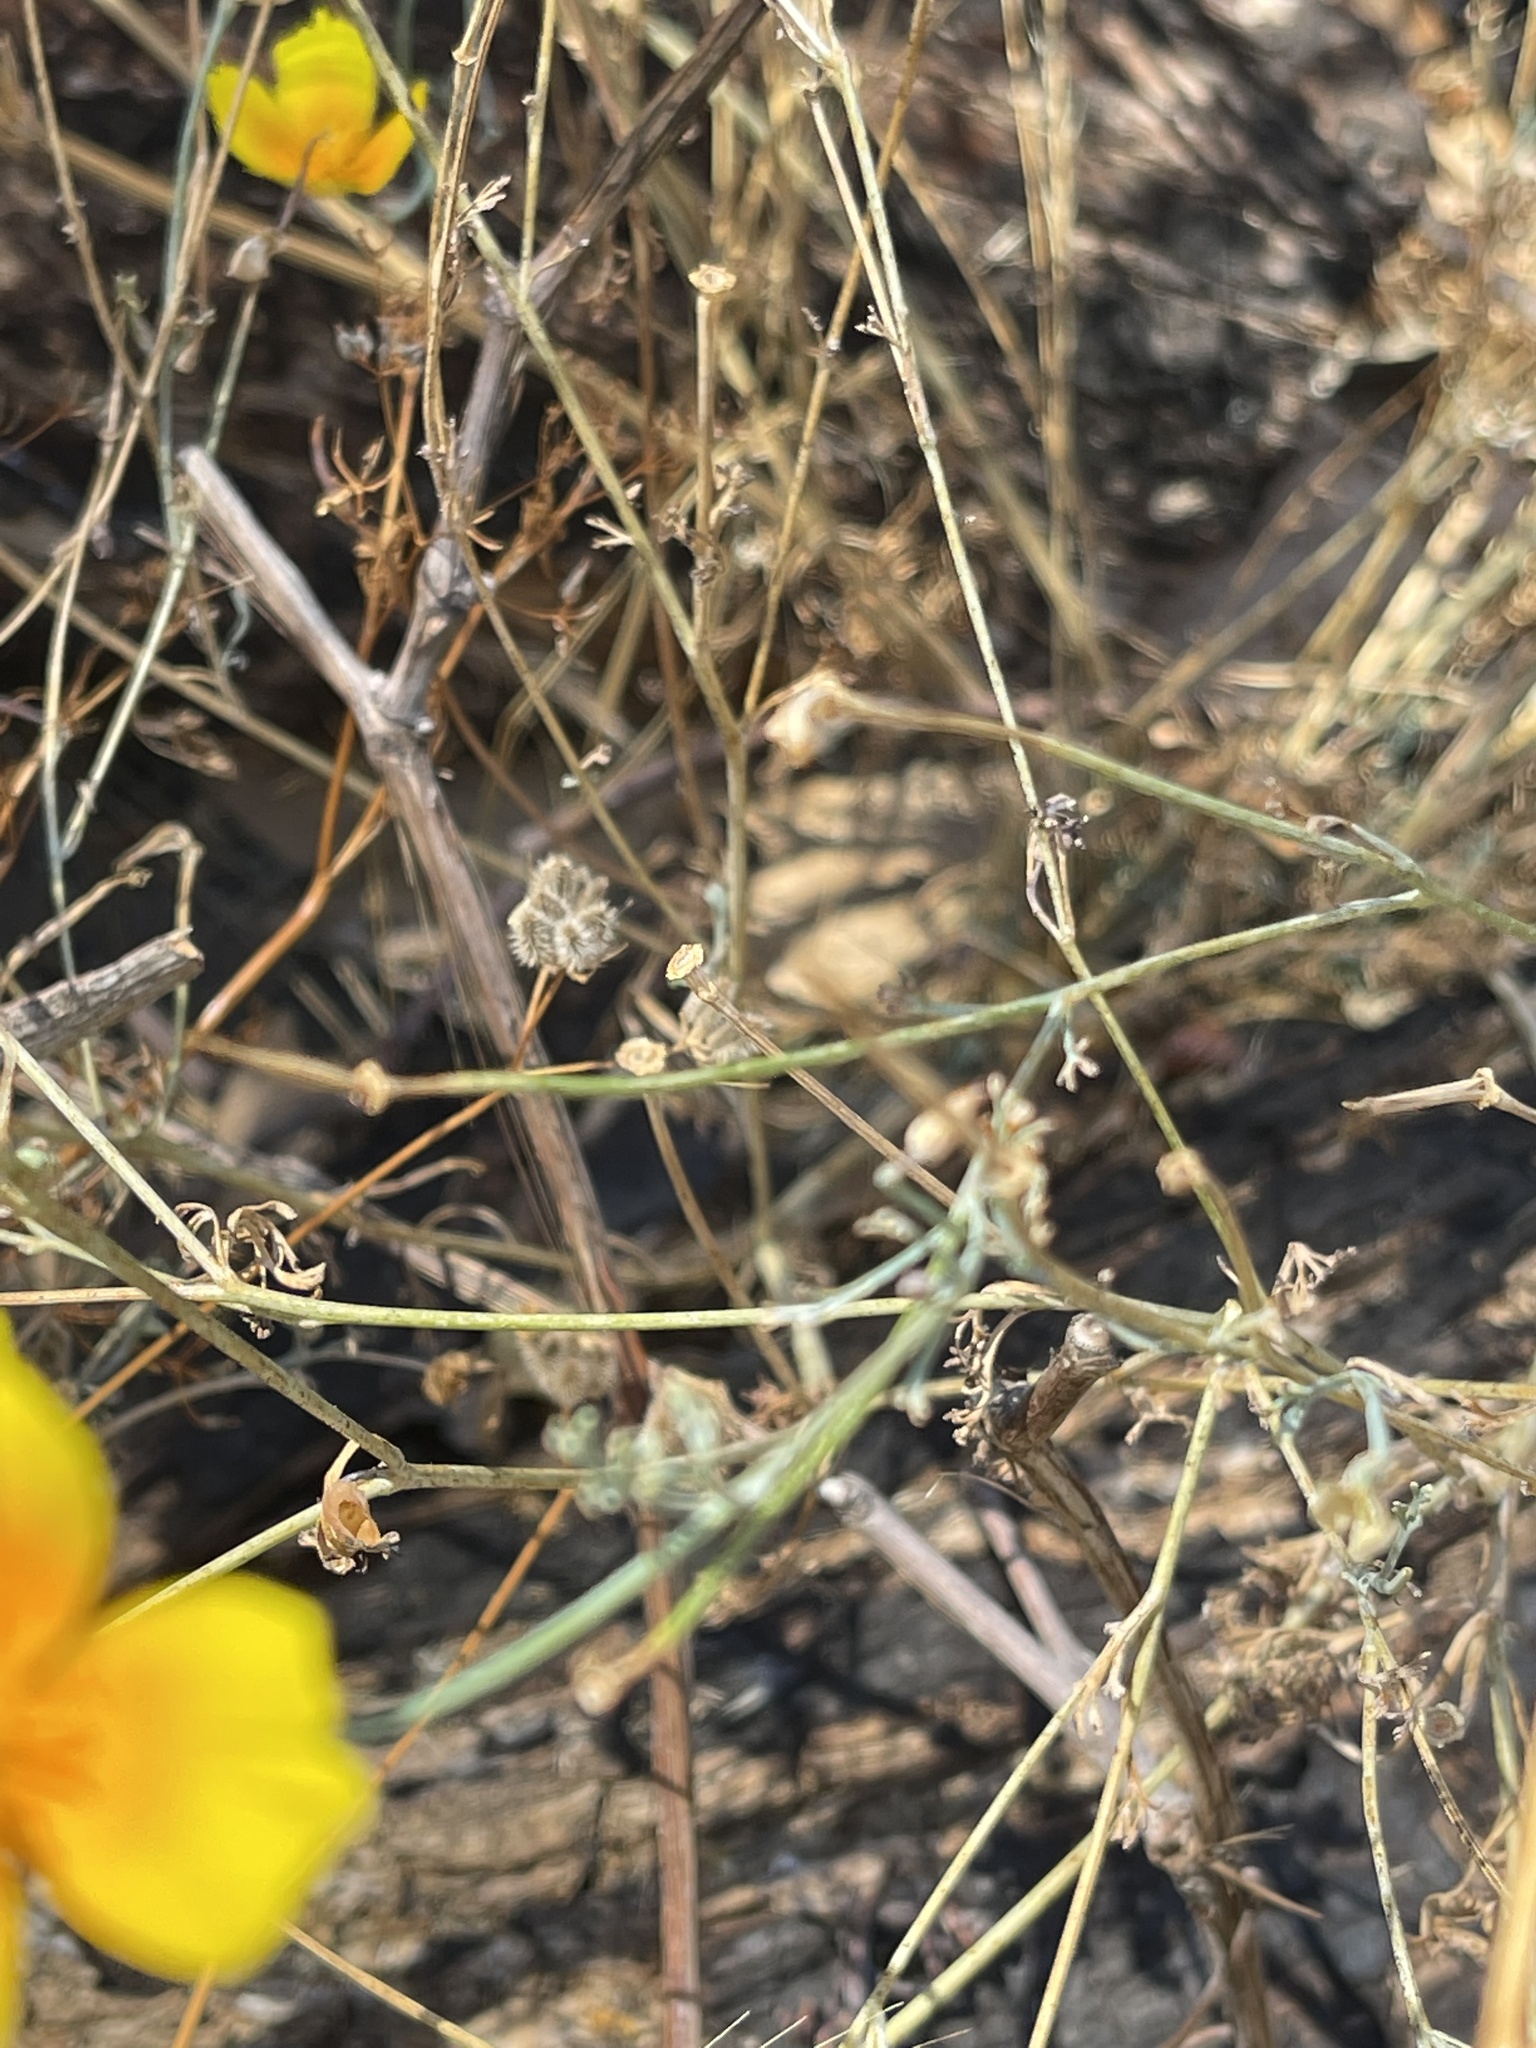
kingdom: Plantae
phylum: Tracheophyta
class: Magnoliopsida
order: Ranunculales
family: Papaveraceae
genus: Eschscholzia
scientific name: Eschscholzia californica
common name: California poppy
